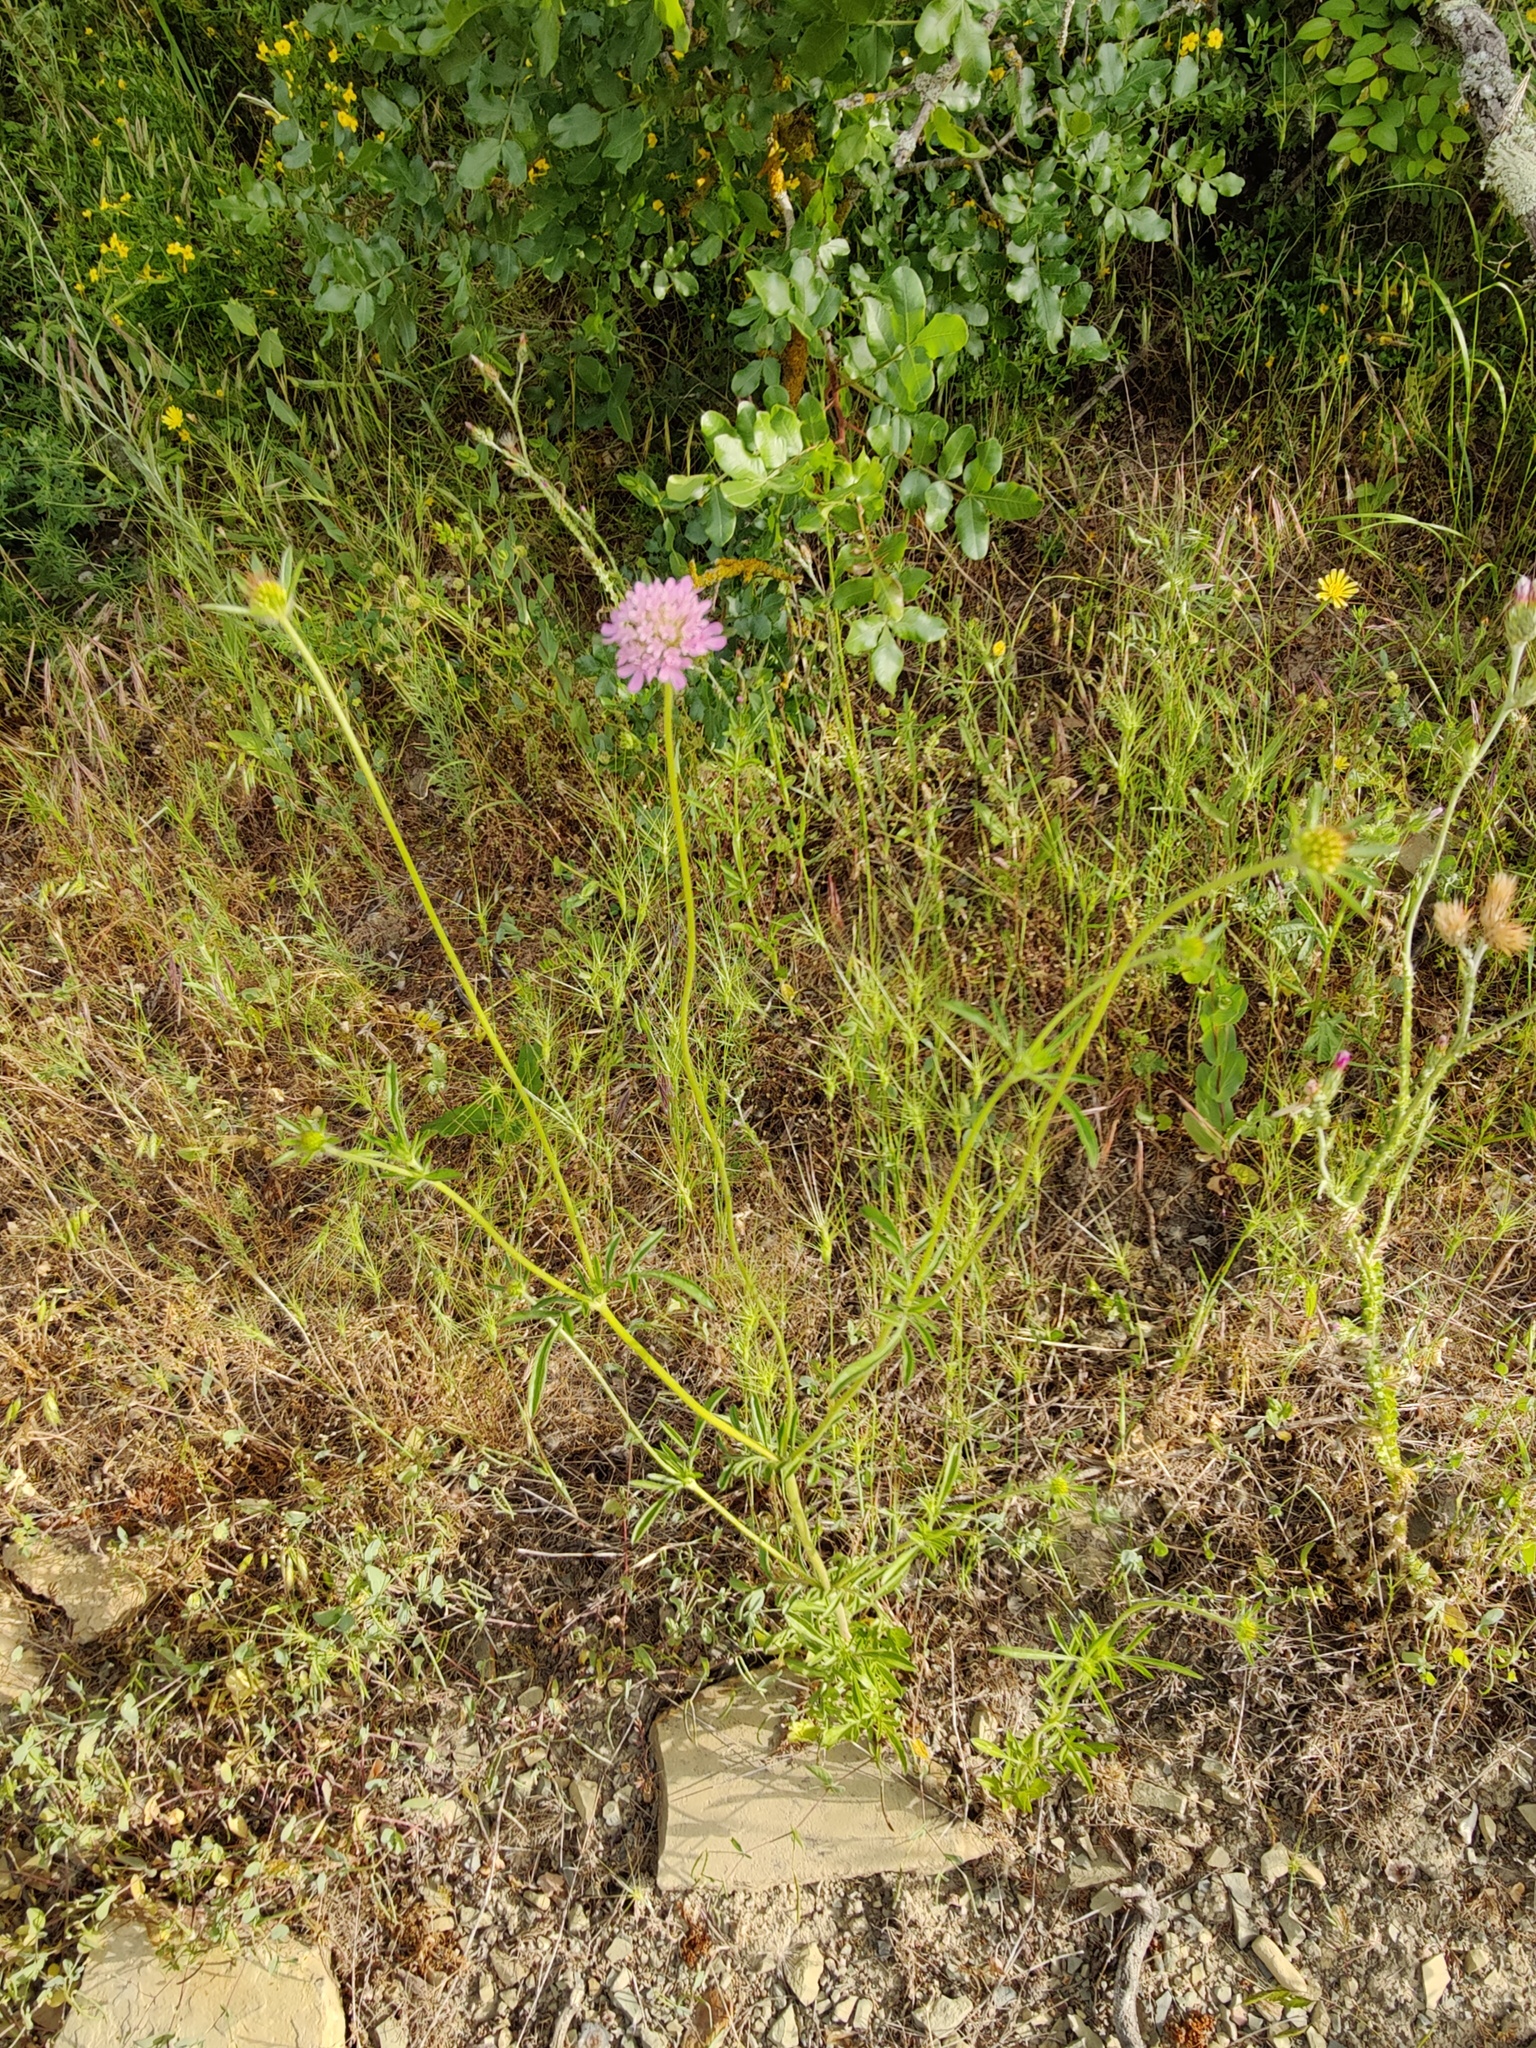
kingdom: Plantae
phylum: Tracheophyta
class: Magnoliopsida
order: Dipsacales
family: Caprifoliaceae
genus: Lomelosia
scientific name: Lomelosia micrantha
